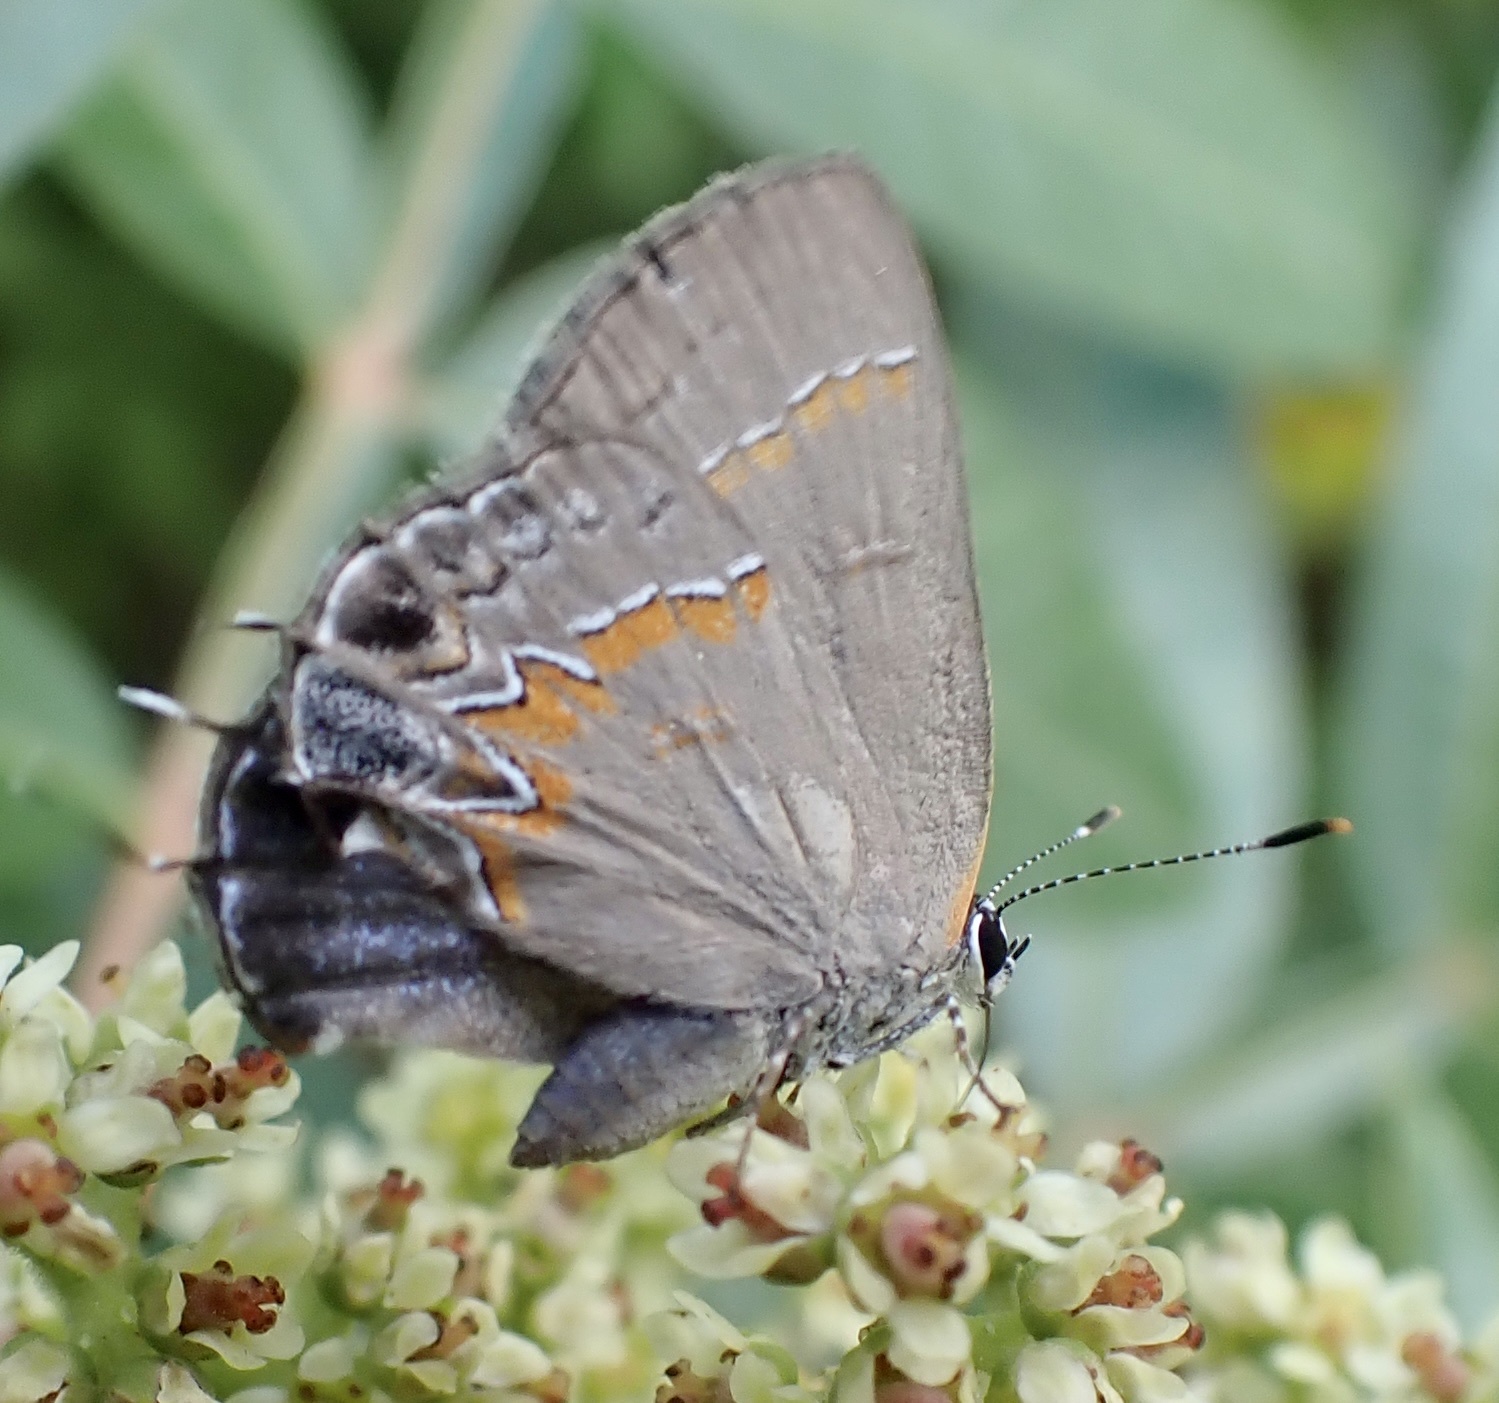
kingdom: Animalia
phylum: Arthropoda
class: Insecta
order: Lepidoptera
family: Lycaenidae
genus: Calycopis
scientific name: Calycopis cecrops
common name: Red-banded hairstreak
